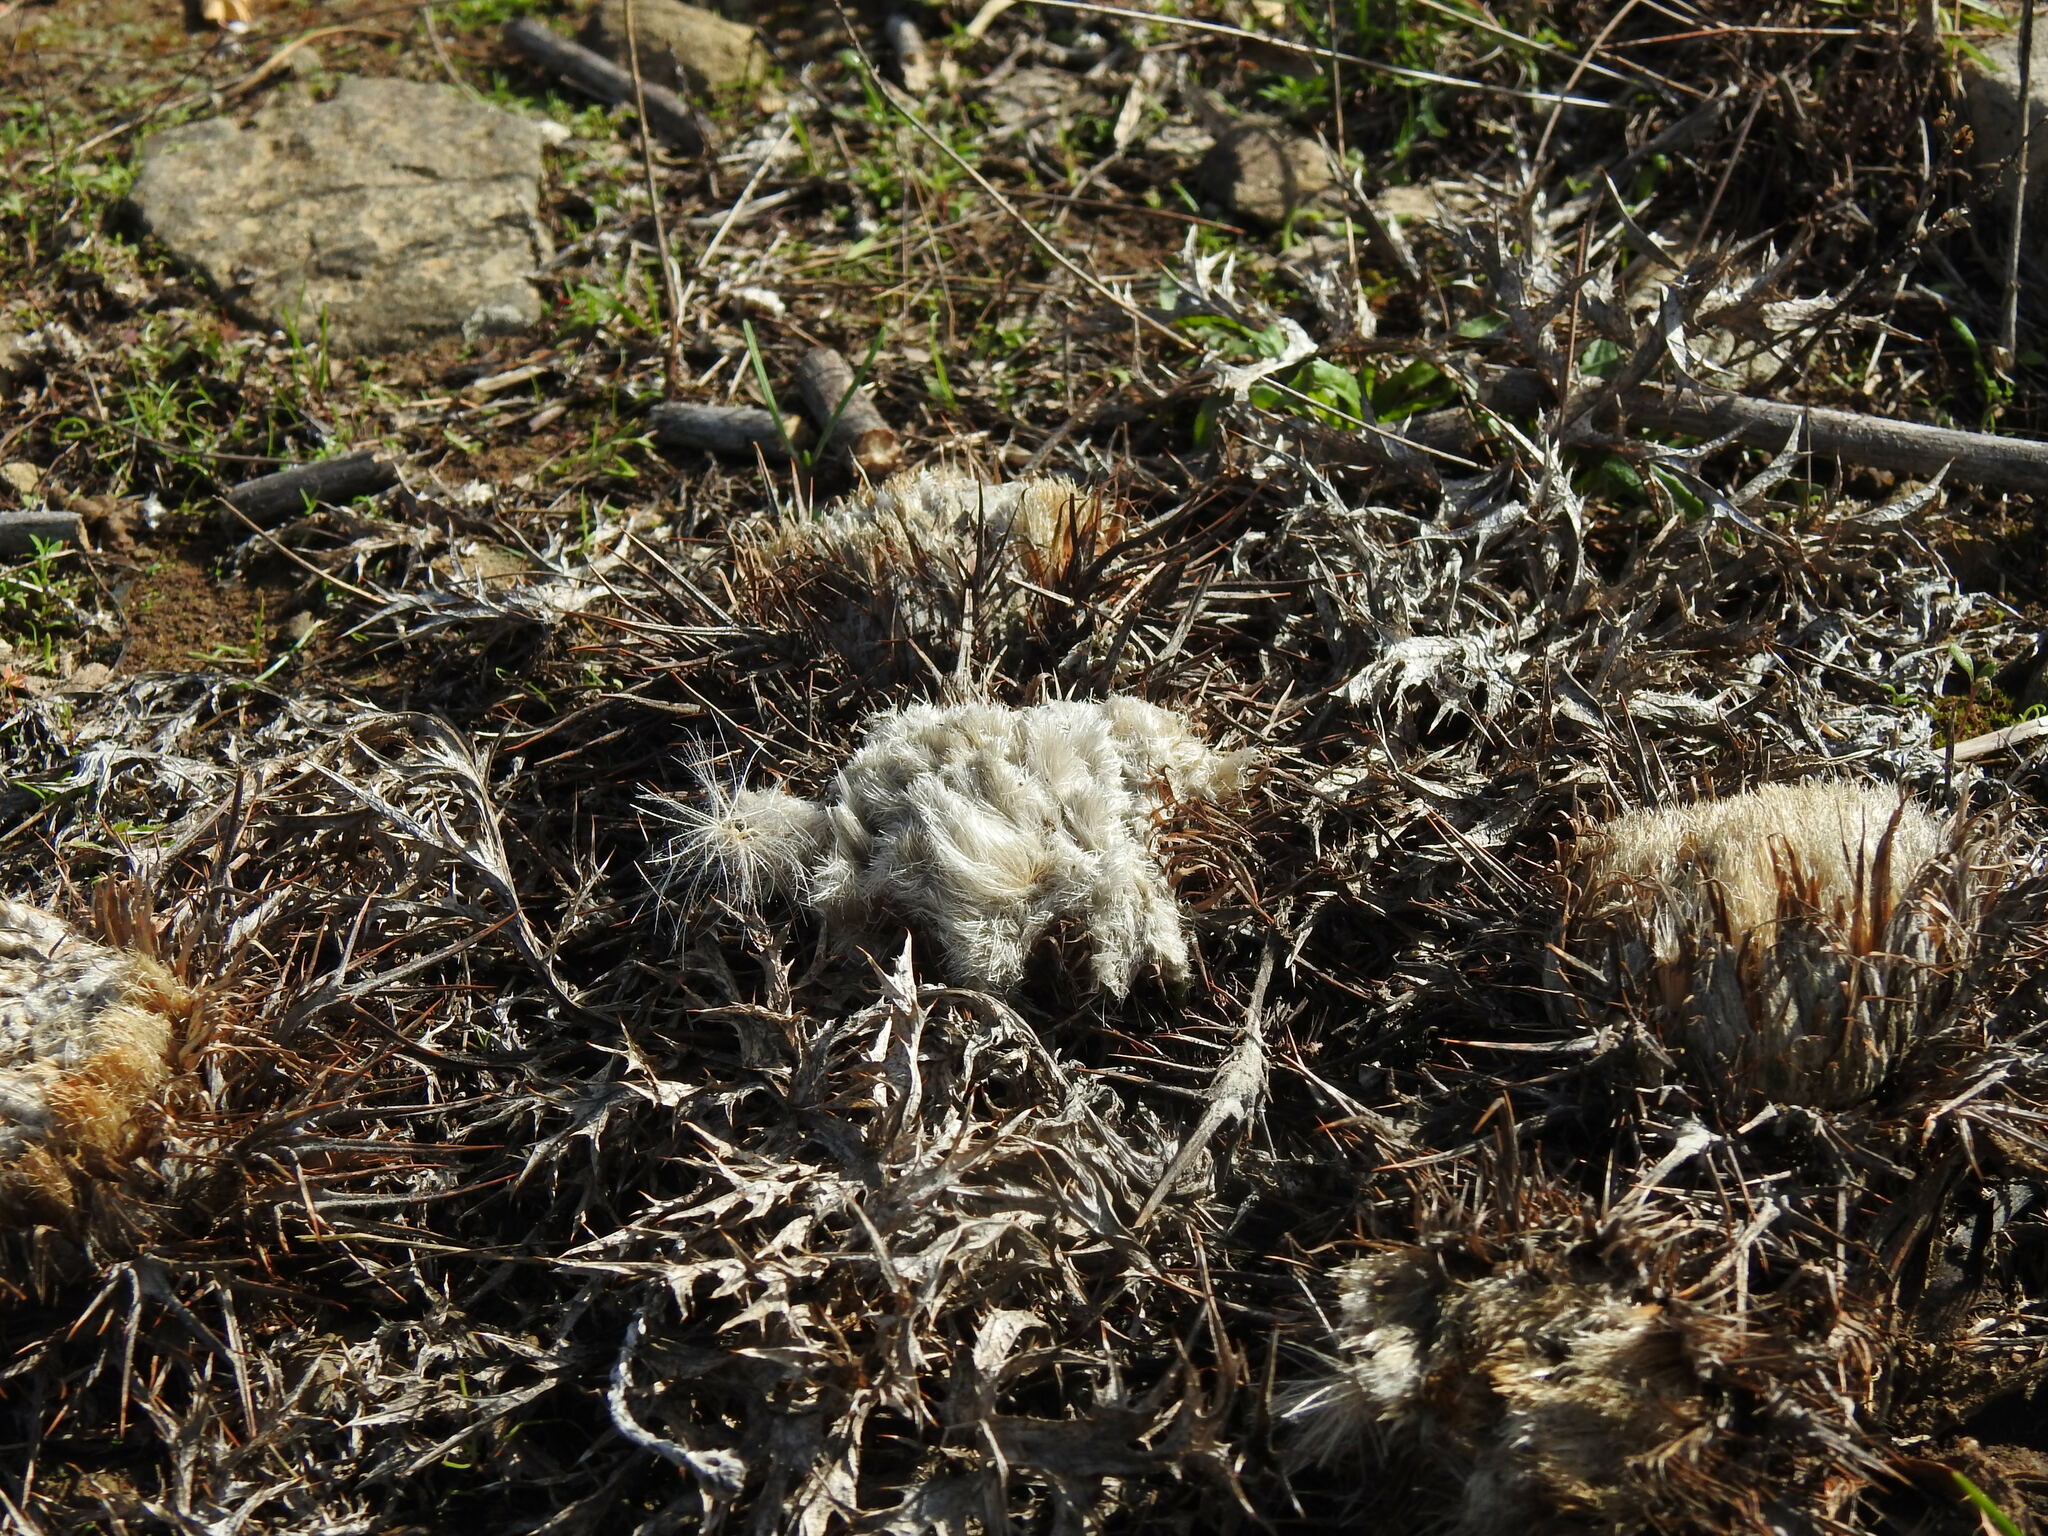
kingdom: Plantae
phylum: Tracheophyta
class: Magnoliopsida
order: Asterales
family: Asteraceae
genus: Chamaeleon
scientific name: Chamaeleon gummifer
